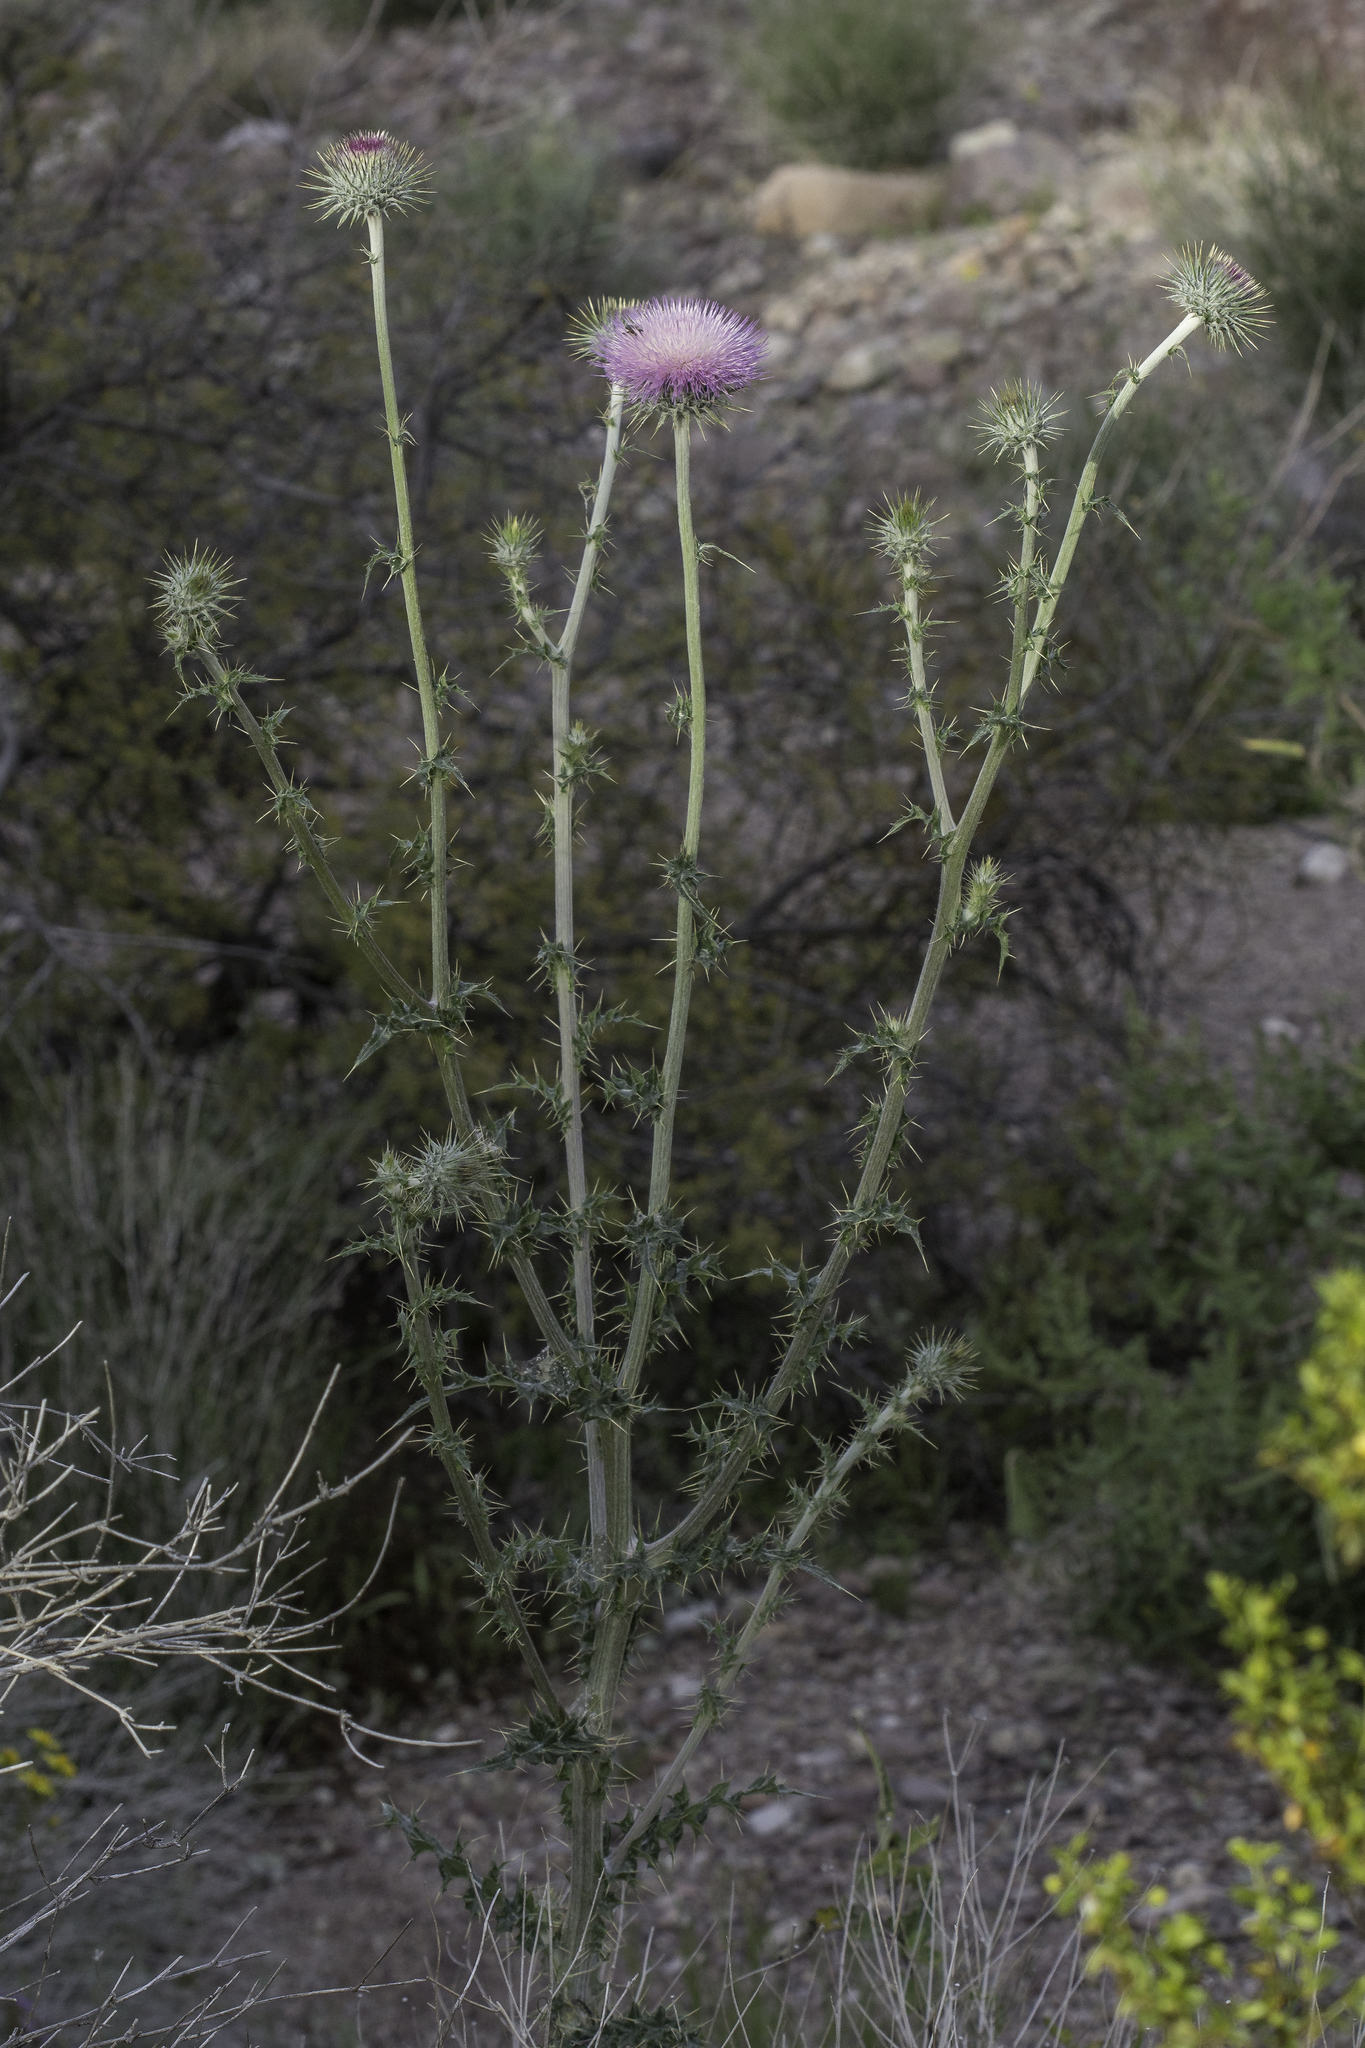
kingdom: Plantae
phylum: Tracheophyta
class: Magnoliopsida
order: Asterales
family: Asteraceae
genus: Cirsium
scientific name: Cirsium neomexicanum
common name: New mexico thistle
